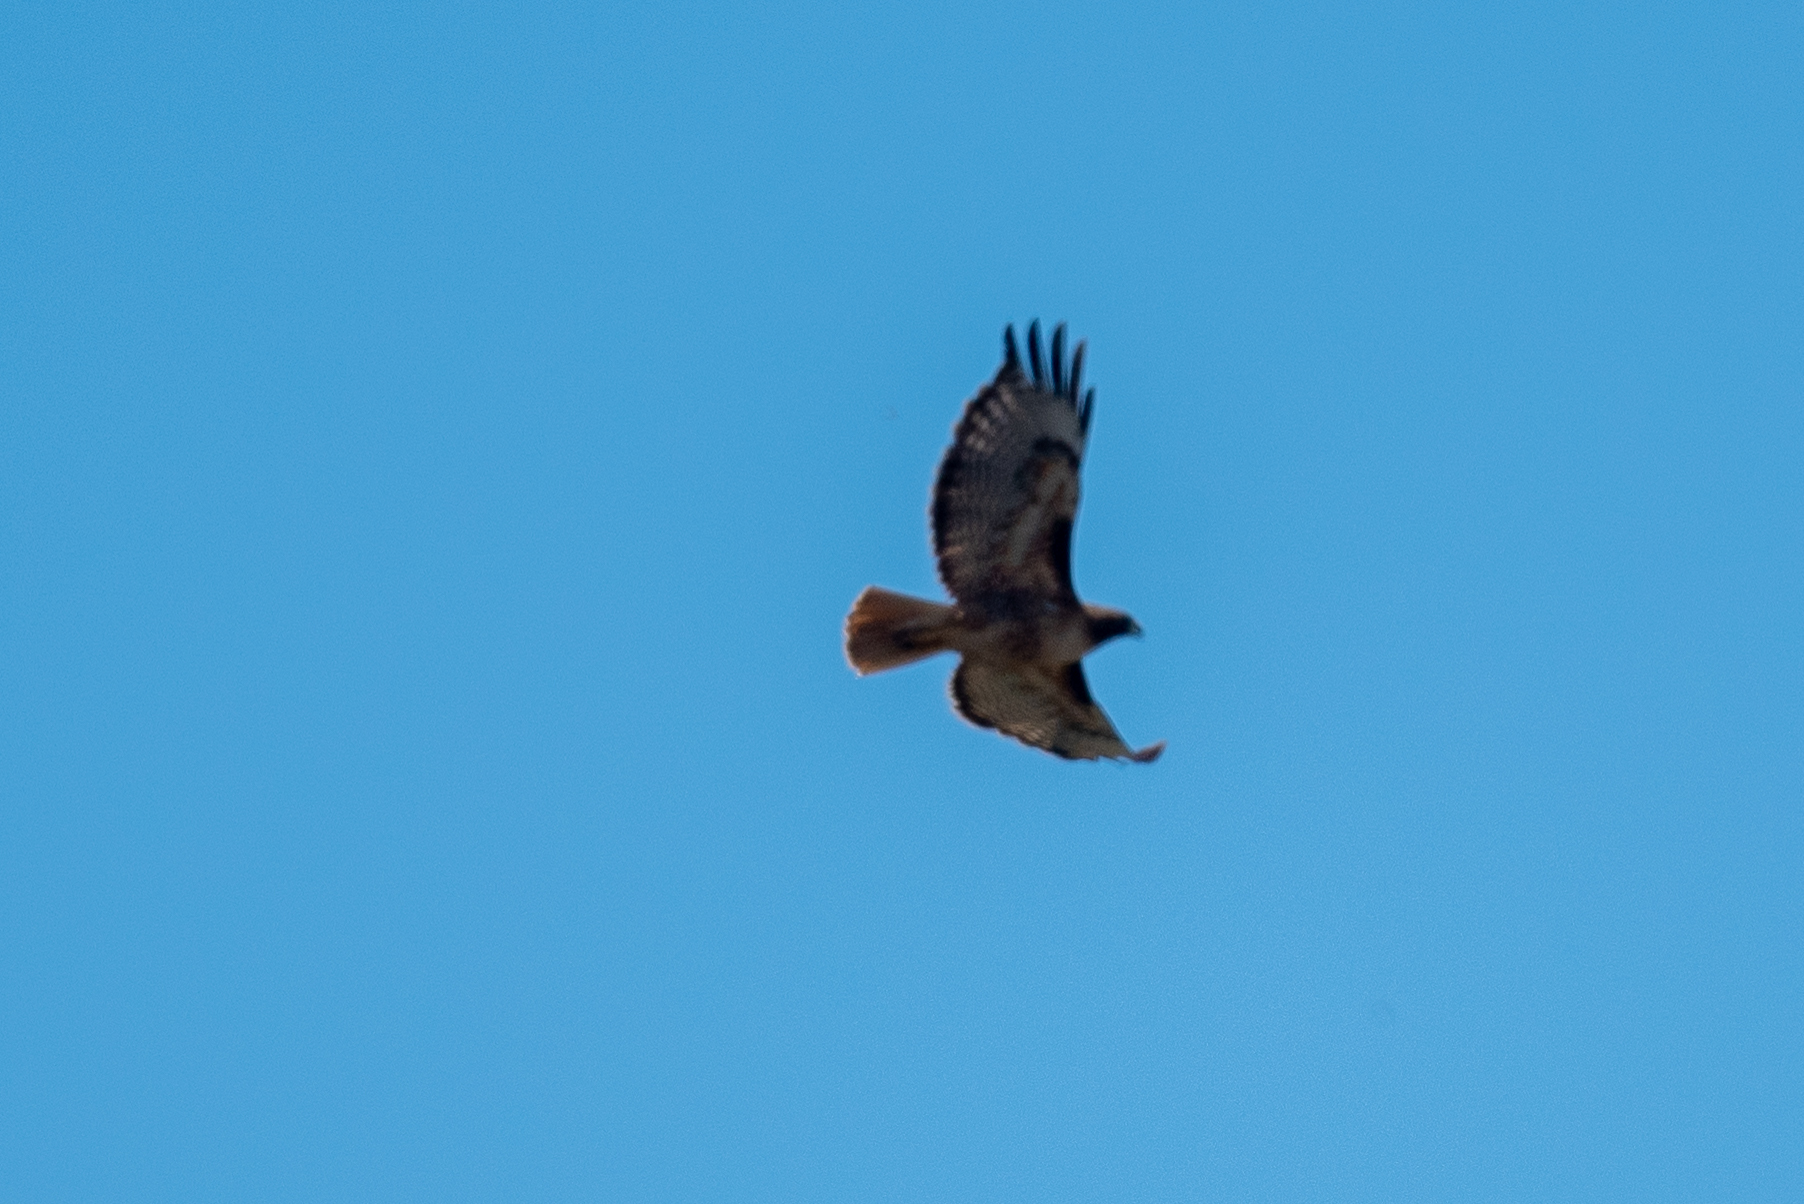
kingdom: Animalia
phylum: Chordata
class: Aves
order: Accipitriformes
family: Accipitridae
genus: Buteo
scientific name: Buteo jamaicensis
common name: Red-tailed hawk
